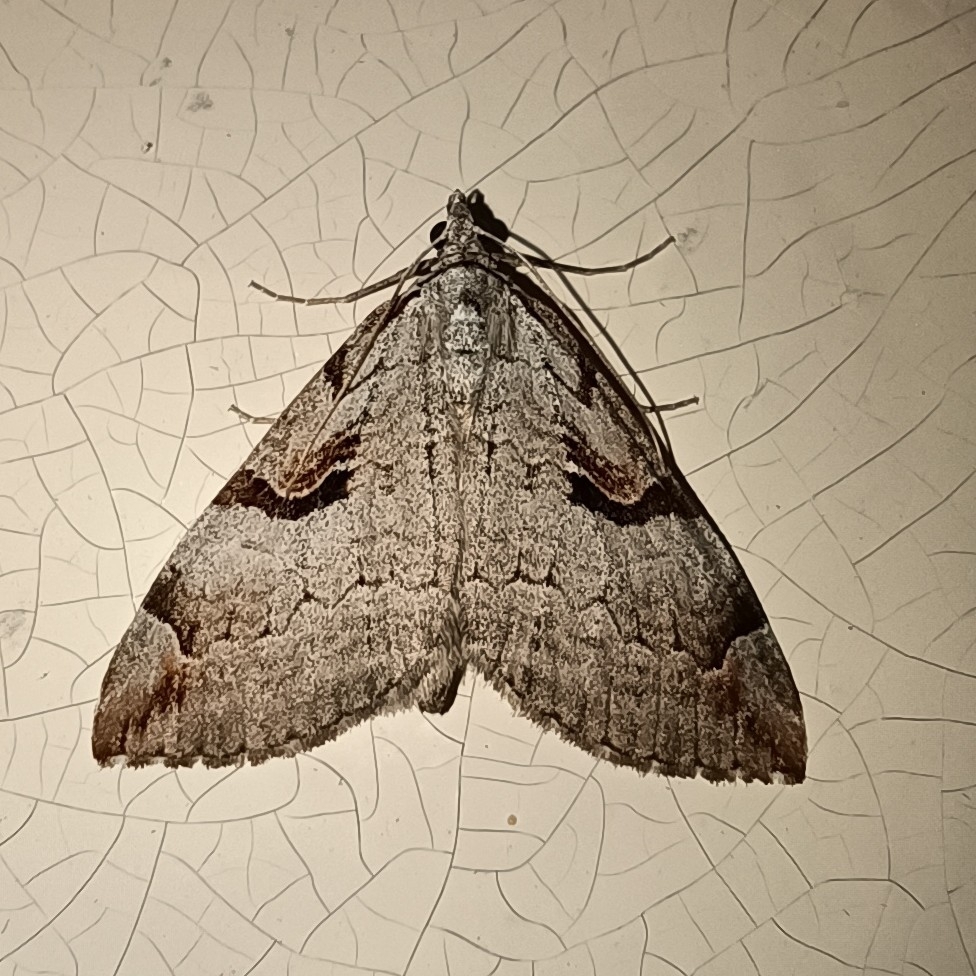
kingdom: Animalia
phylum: Arthropoda
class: Insecta
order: Lepidoptera
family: Geometridae
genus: Aplocera
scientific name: Aplocera praeformata
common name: Purple treble-bar
